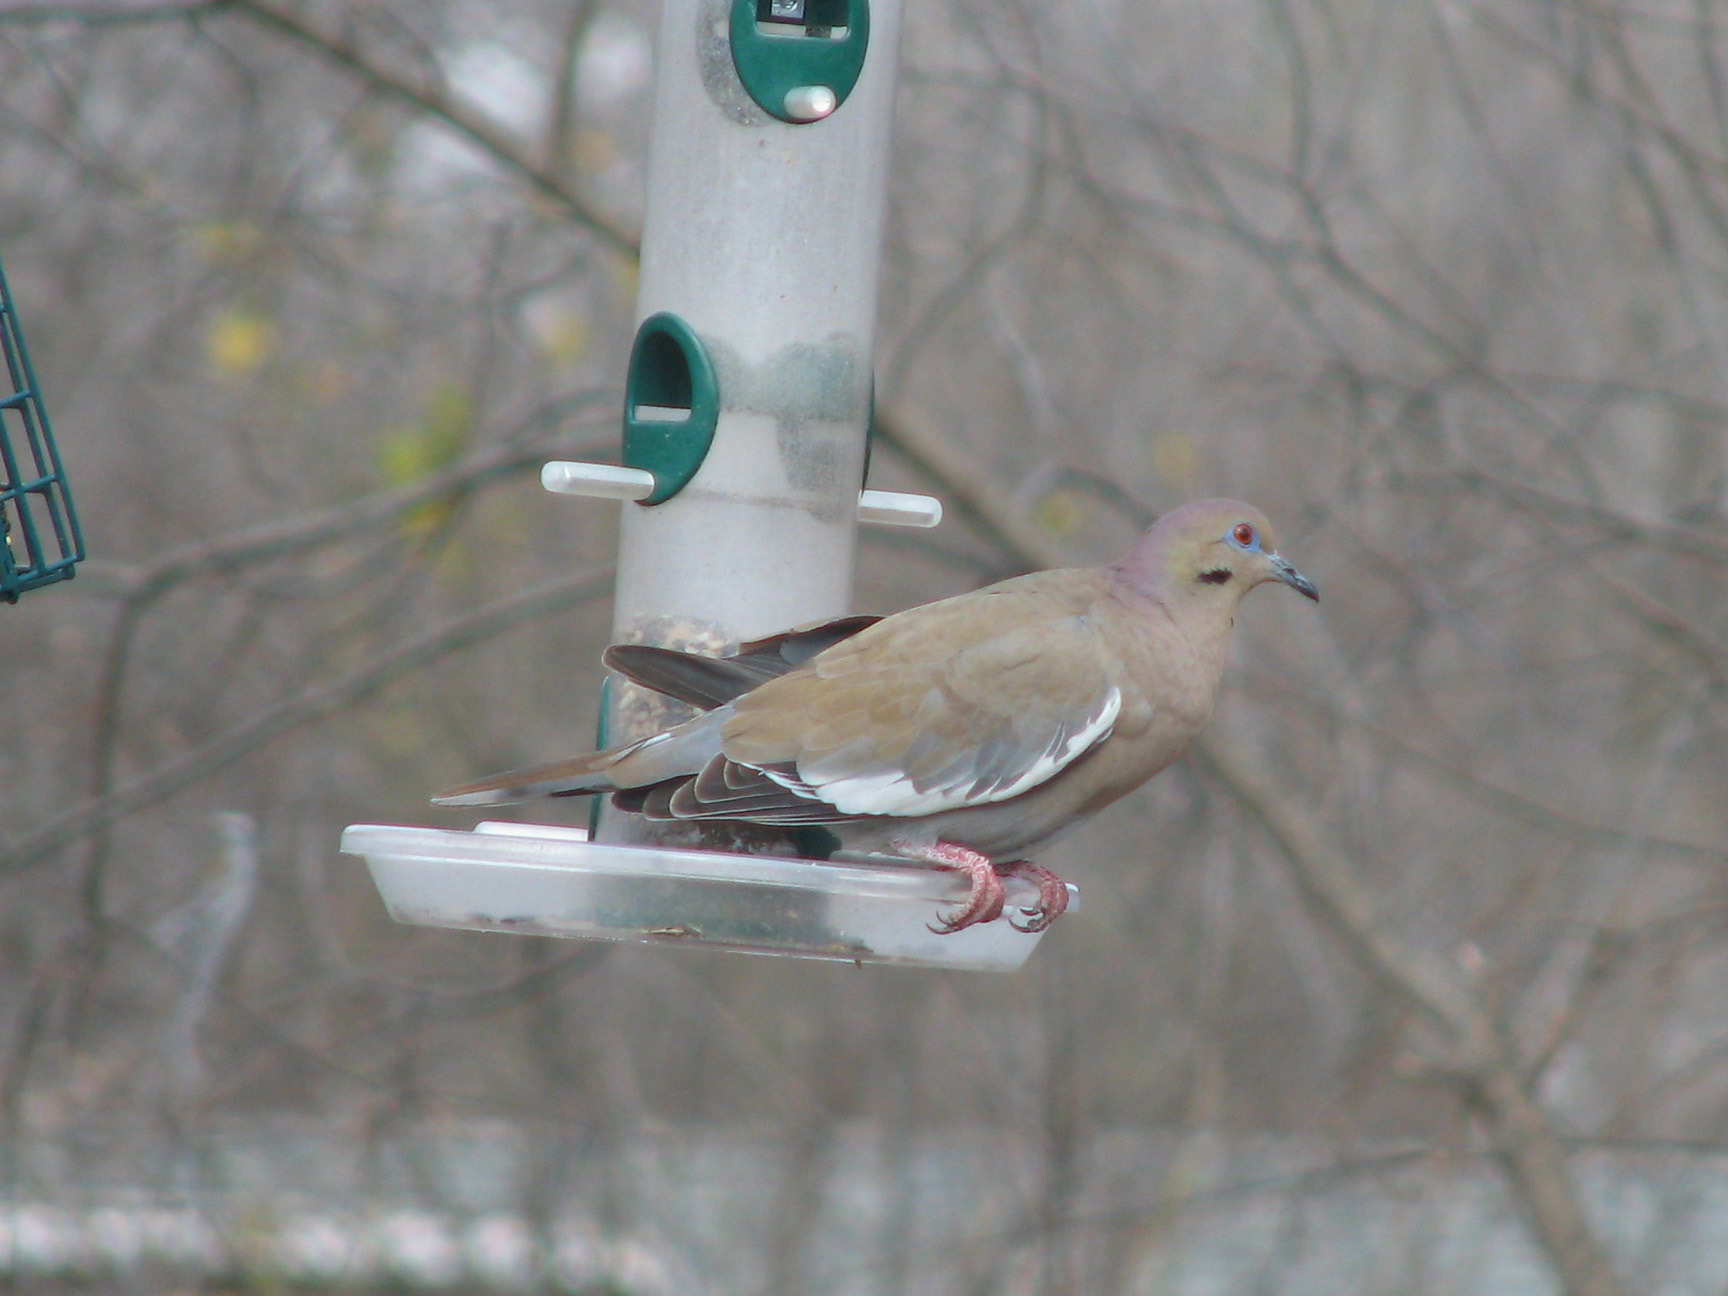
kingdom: Animalia
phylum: Chordata
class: Aves
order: Columbiformes
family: Columbidae
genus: Zenaida
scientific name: Zenaida asiatica
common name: White-winged dove
